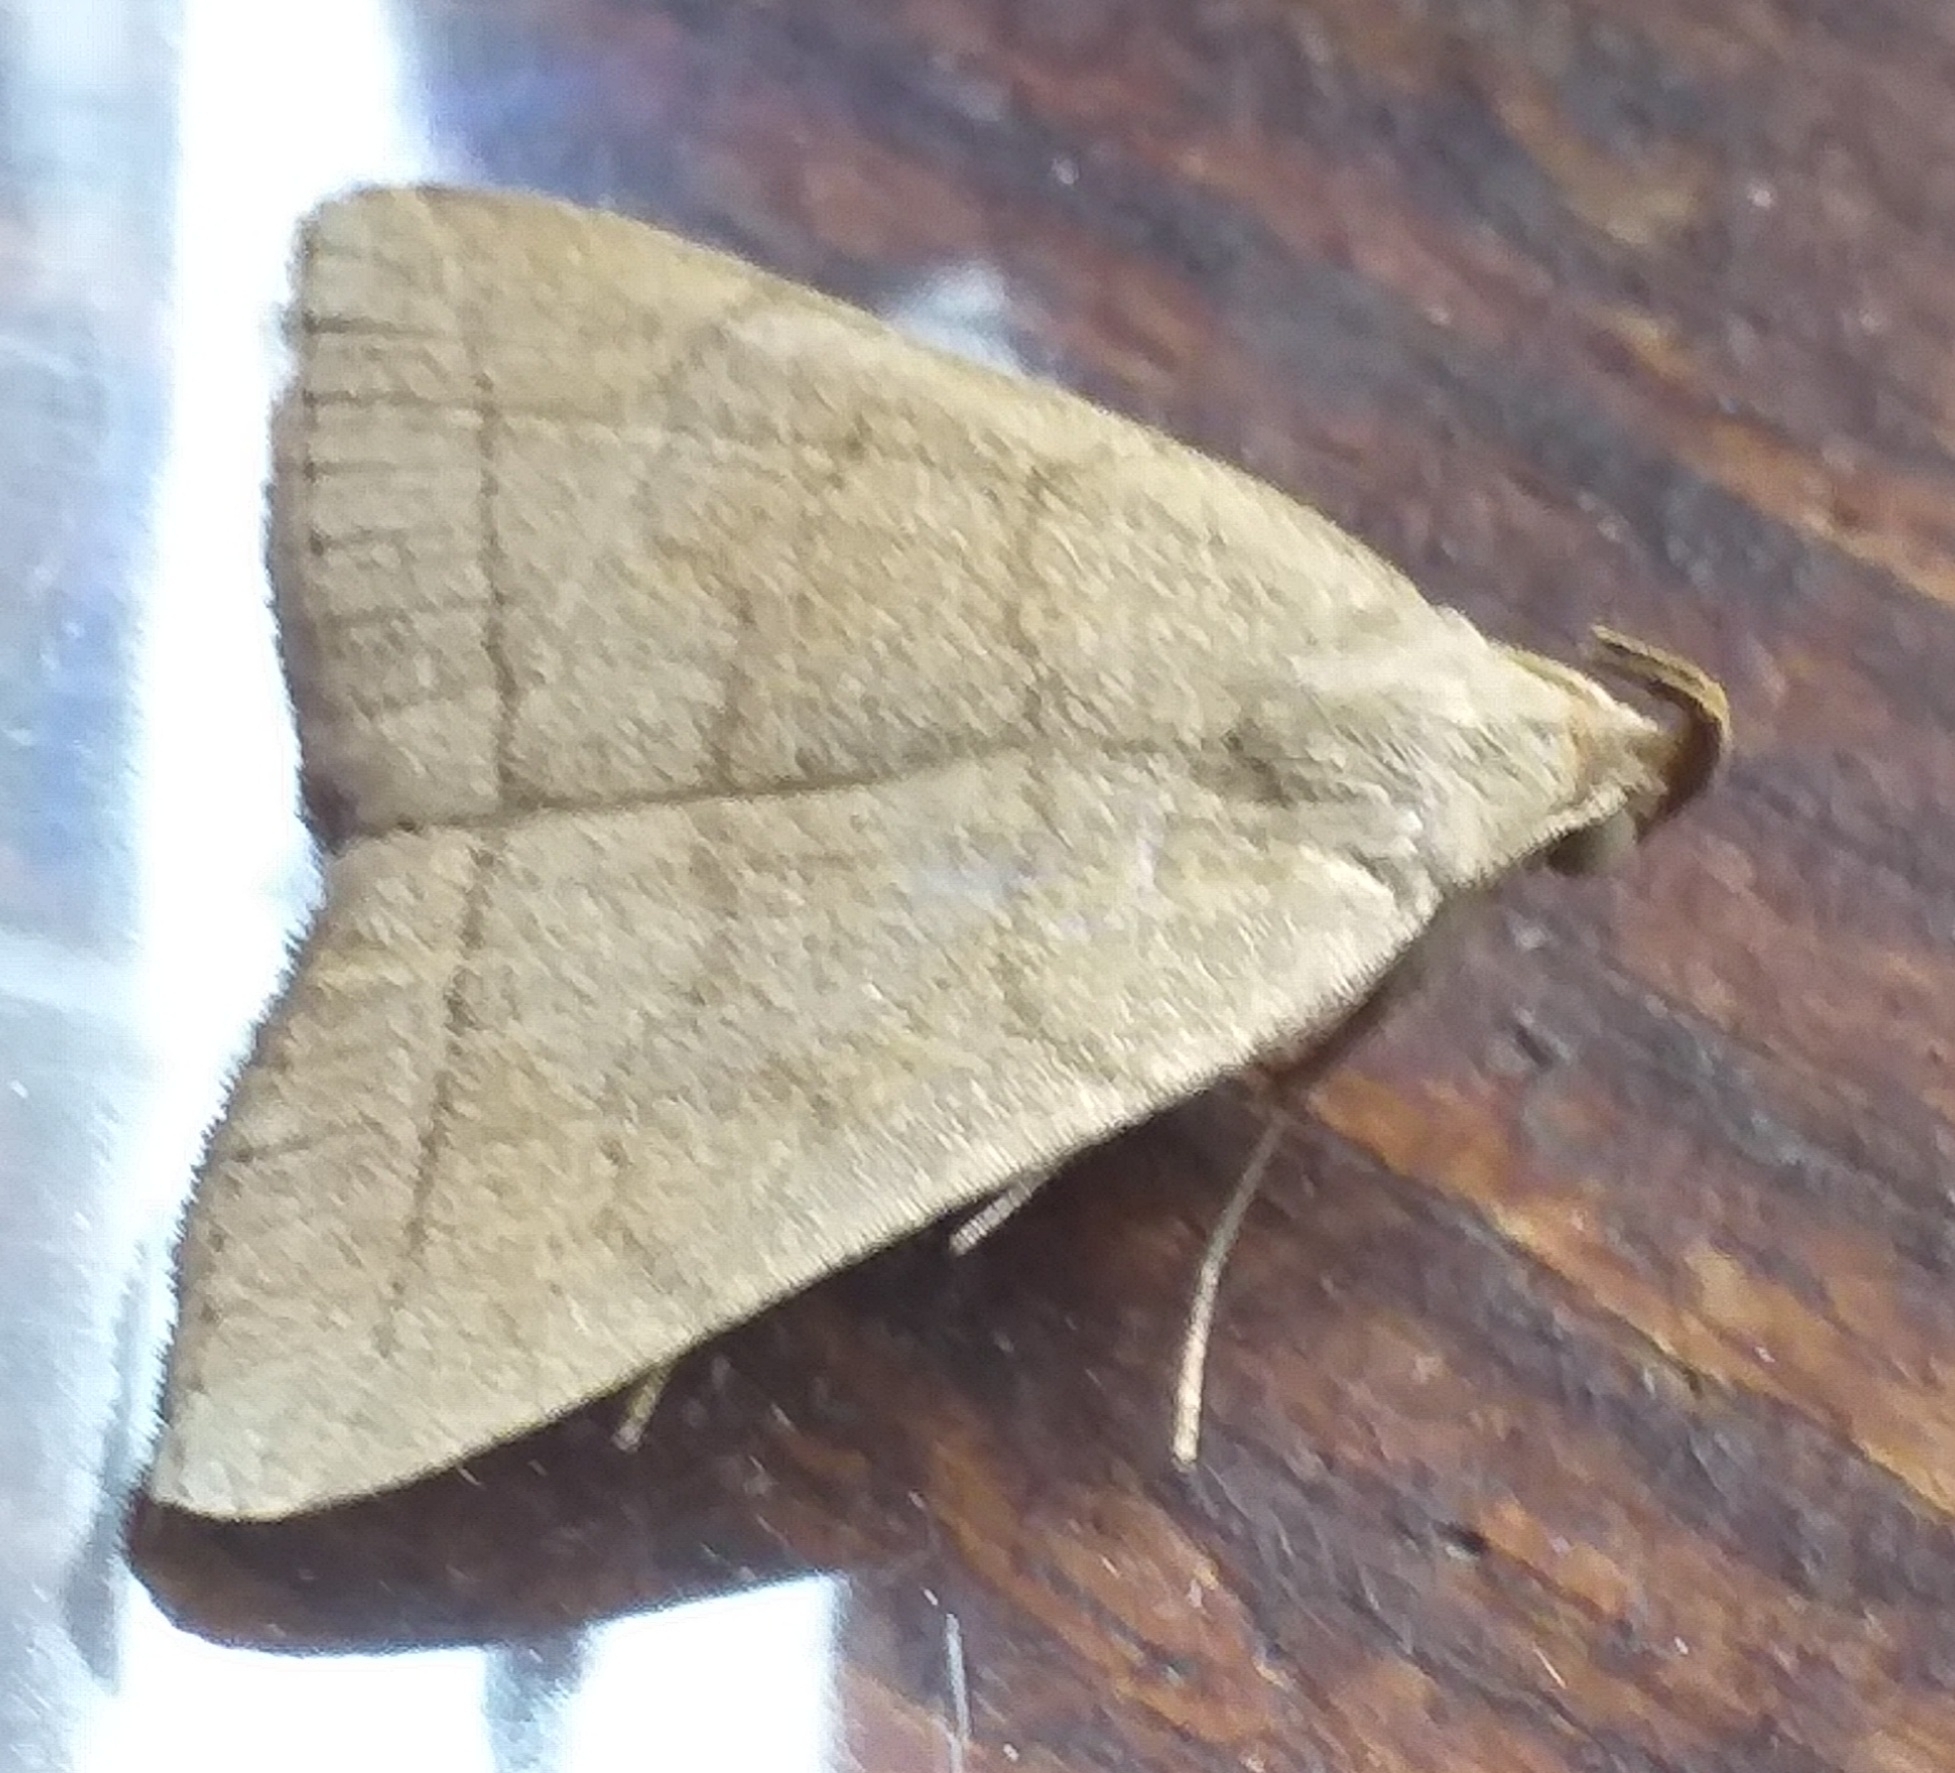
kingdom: Animalia
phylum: Arthropoda
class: Insecta
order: Lepidoptera
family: Erebidae
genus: Herminia
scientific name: Herminia tarsipennalis
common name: Fan-foot
